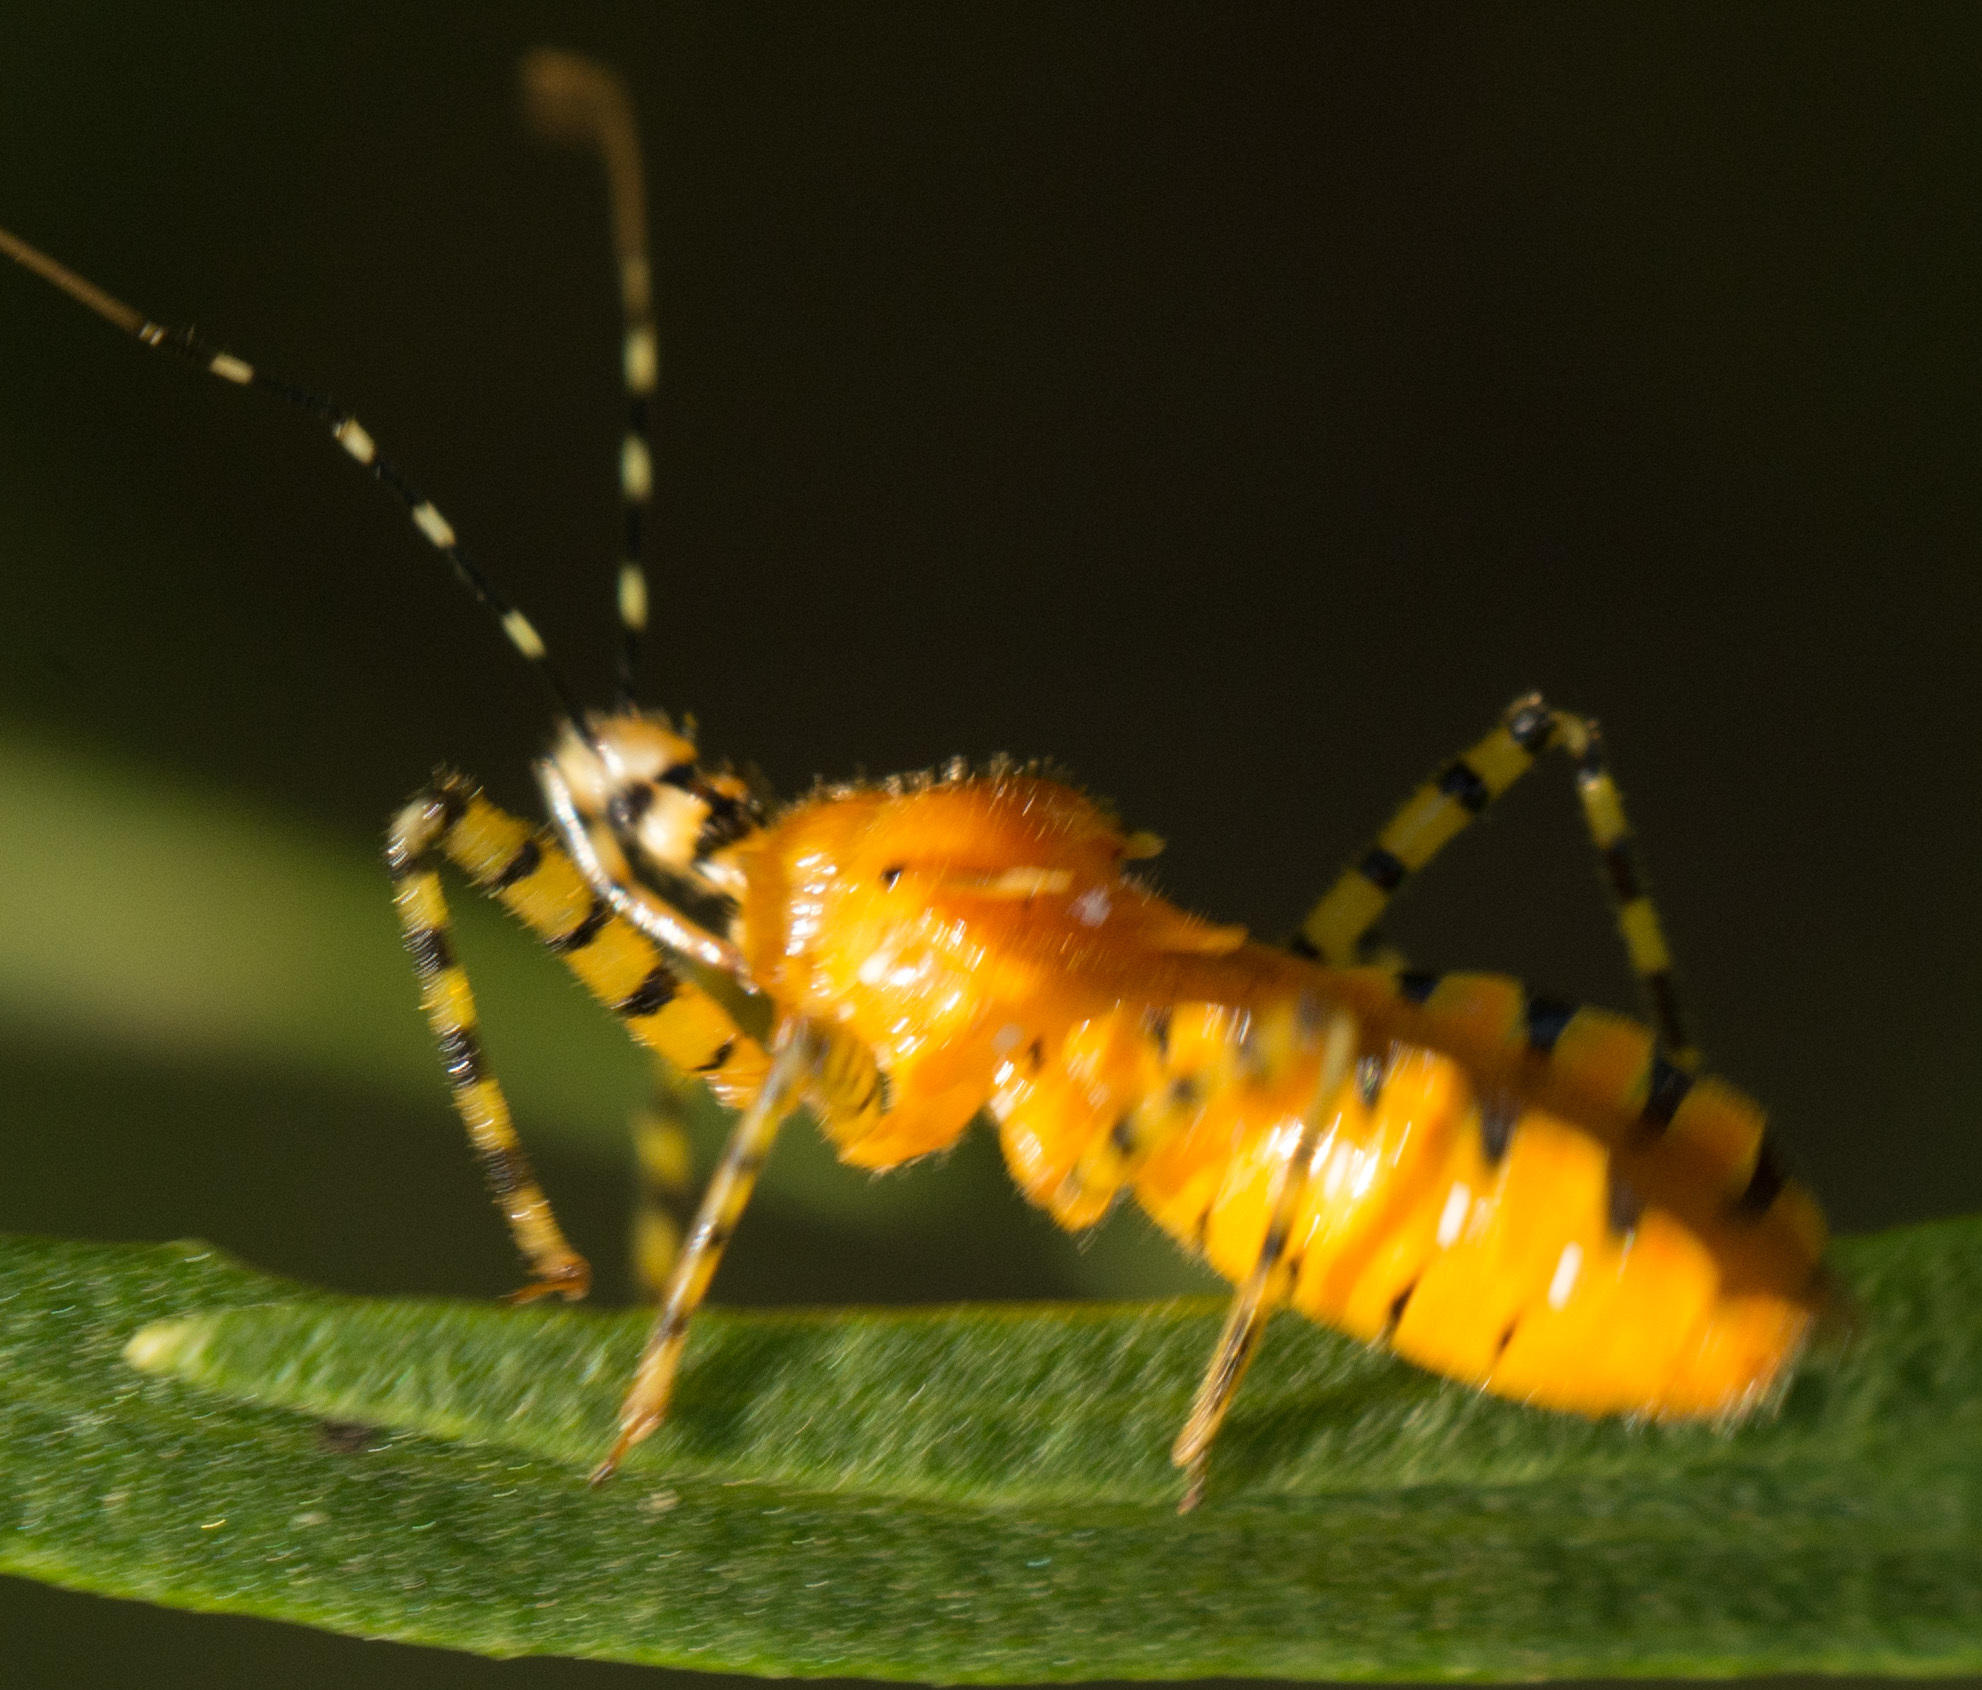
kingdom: Animalia
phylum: Arthropoda
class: Insecta
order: Hemiptera
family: Reduviidae
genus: Pselliopus
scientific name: Pselliopus barberi
